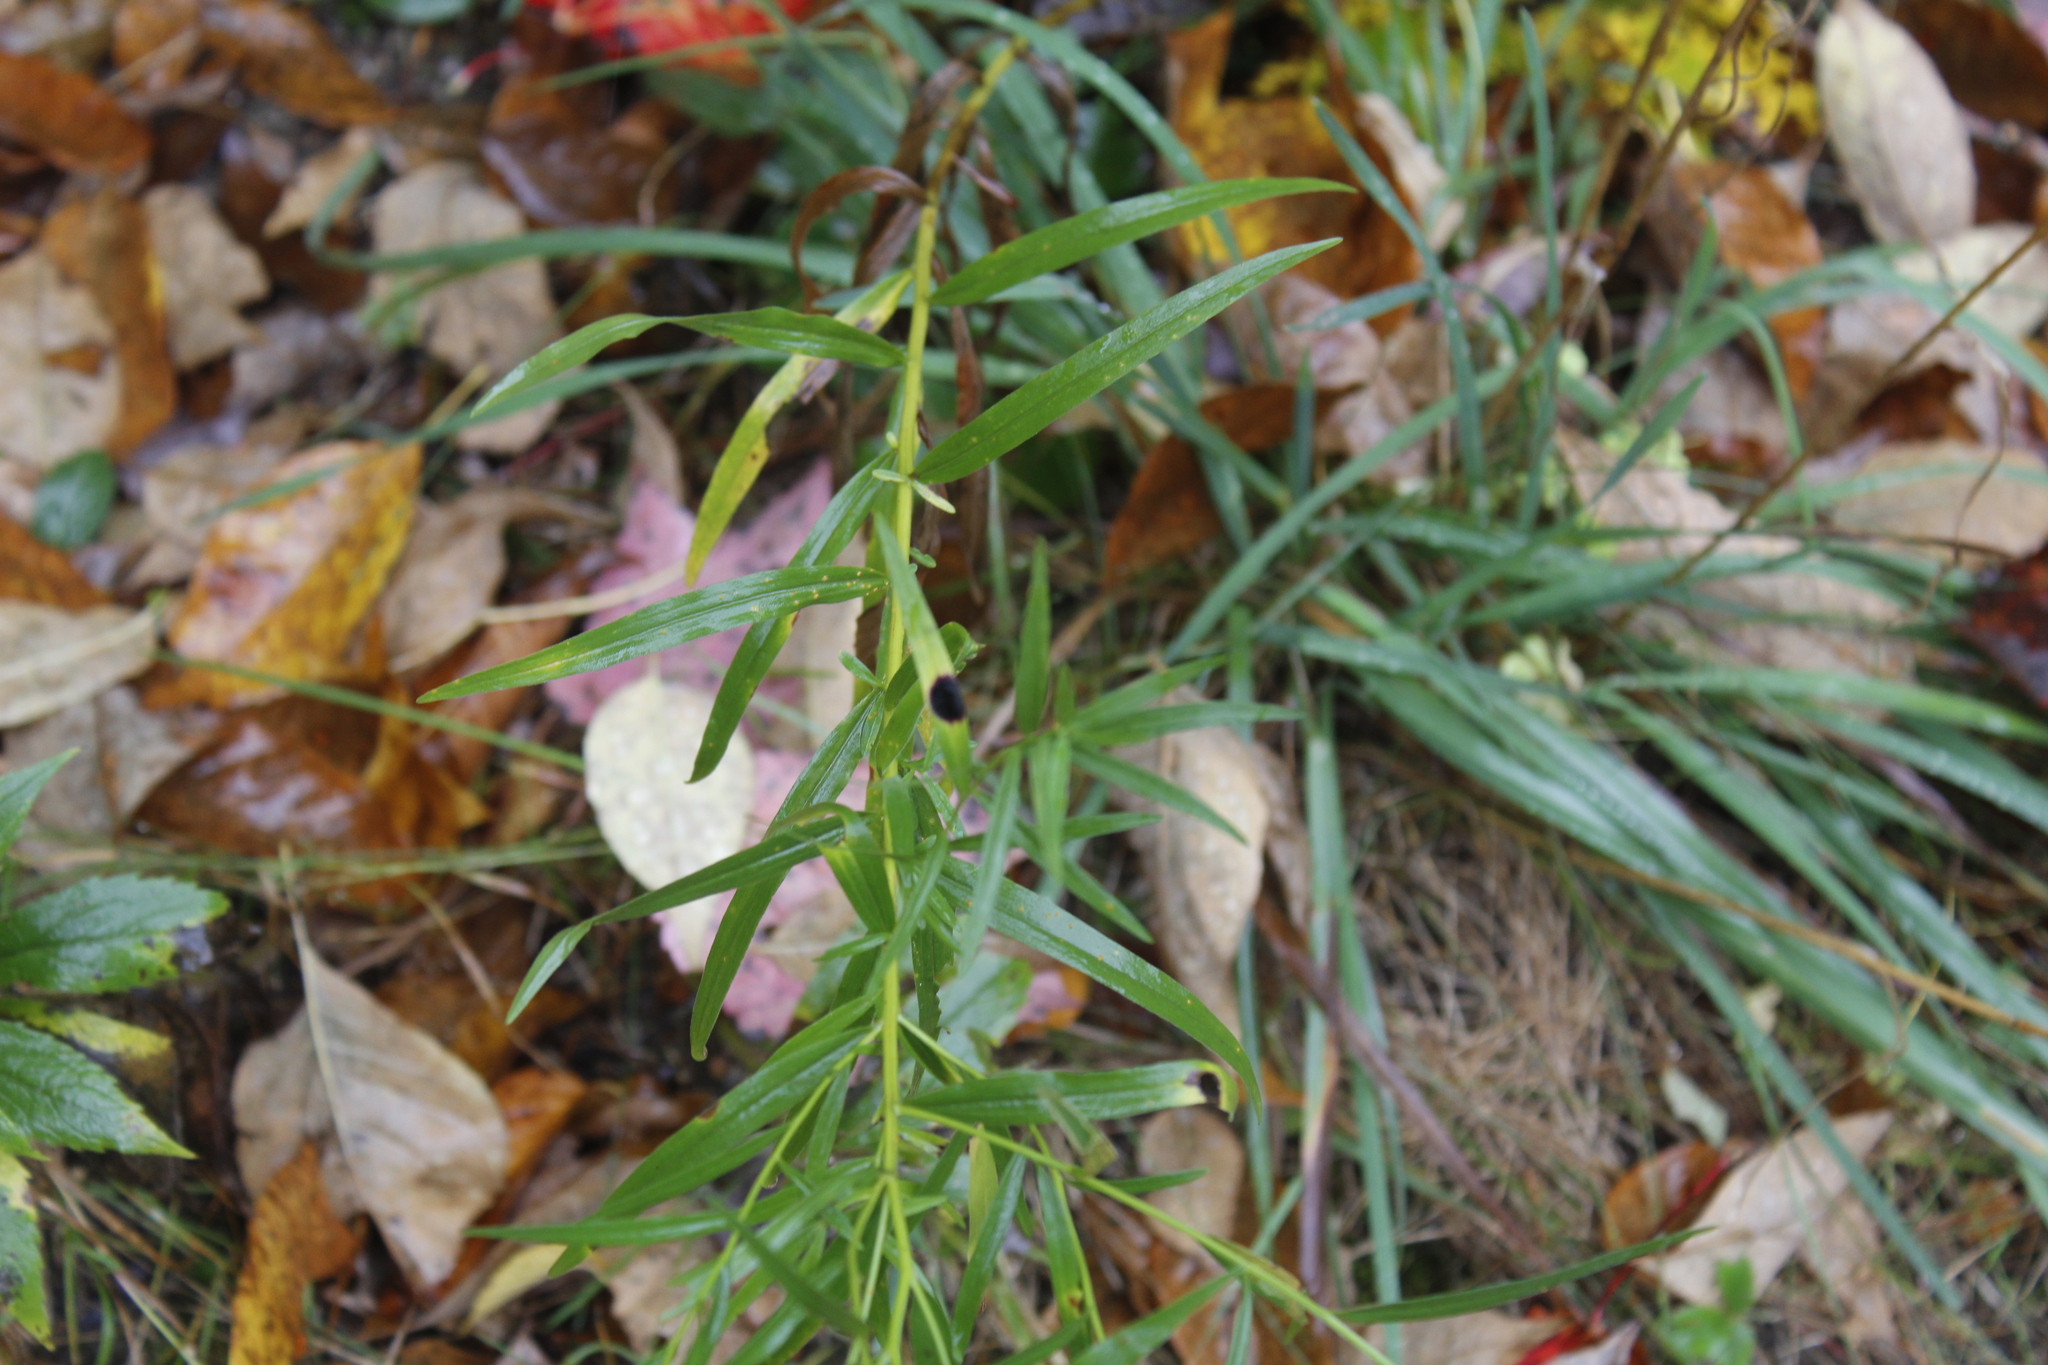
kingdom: Animalia
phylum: Arthropoda
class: Insecta
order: Diptera
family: Cecidomyiidae
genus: Asteromyia
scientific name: Asteromyia euthamiae
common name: Euthamia leaf gall midge
